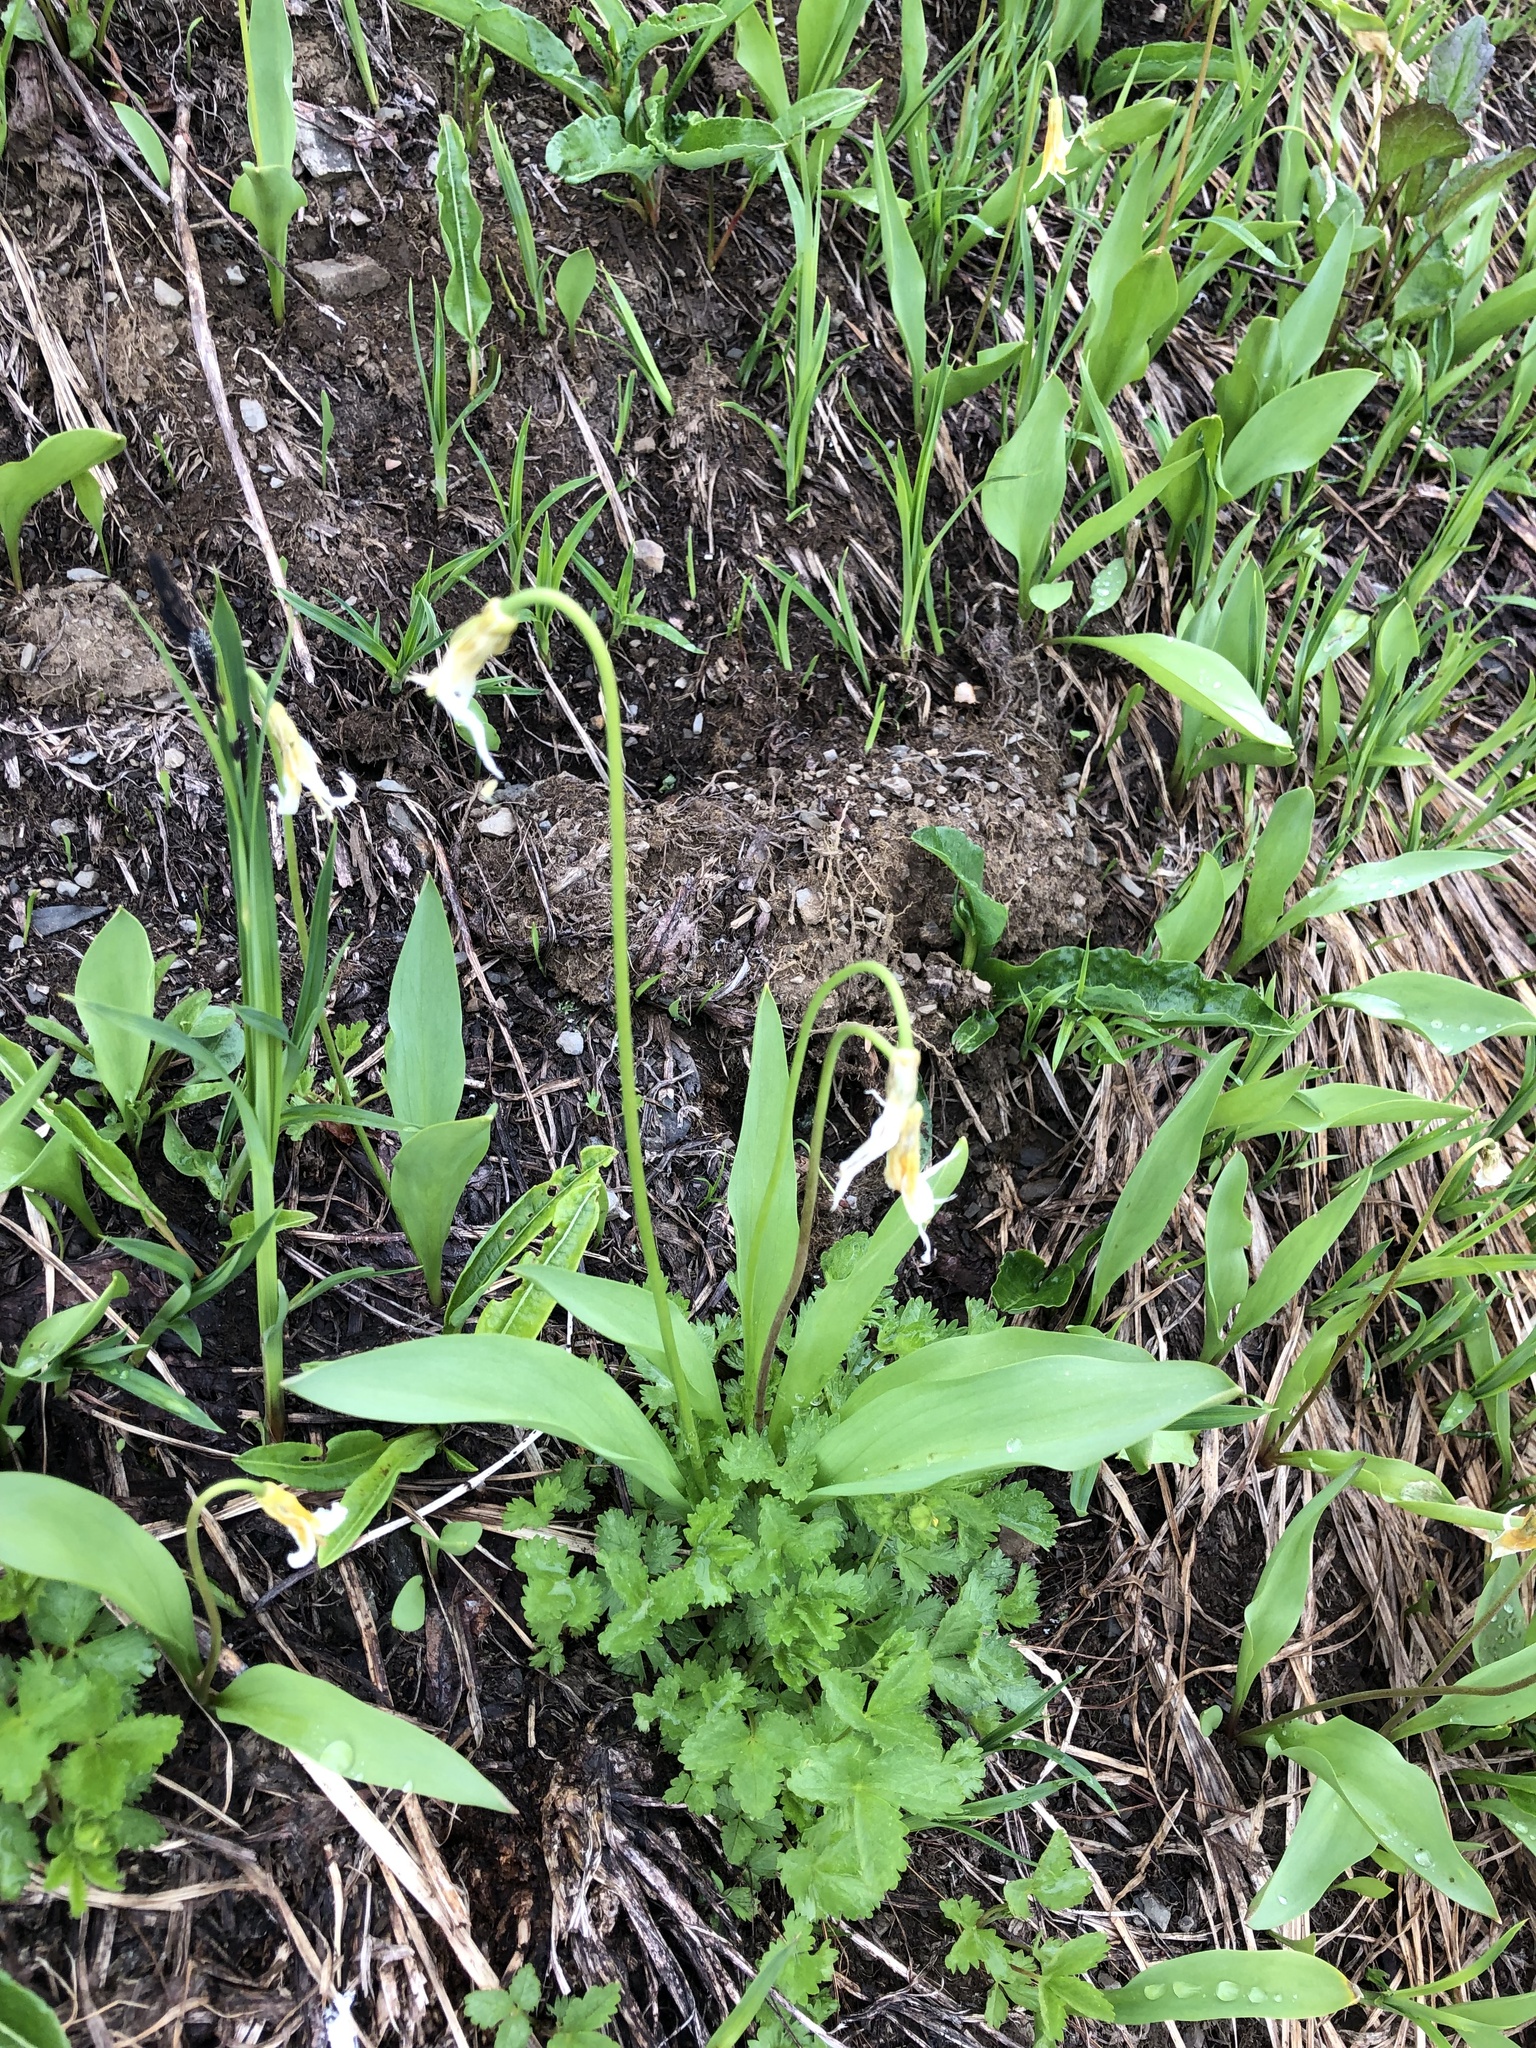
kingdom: Plantae
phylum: Tracheophyta
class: Liliopsida
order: Liliales
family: Liliaceae
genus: Erythronium
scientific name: Erythronium montanum
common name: Avalanche lily
